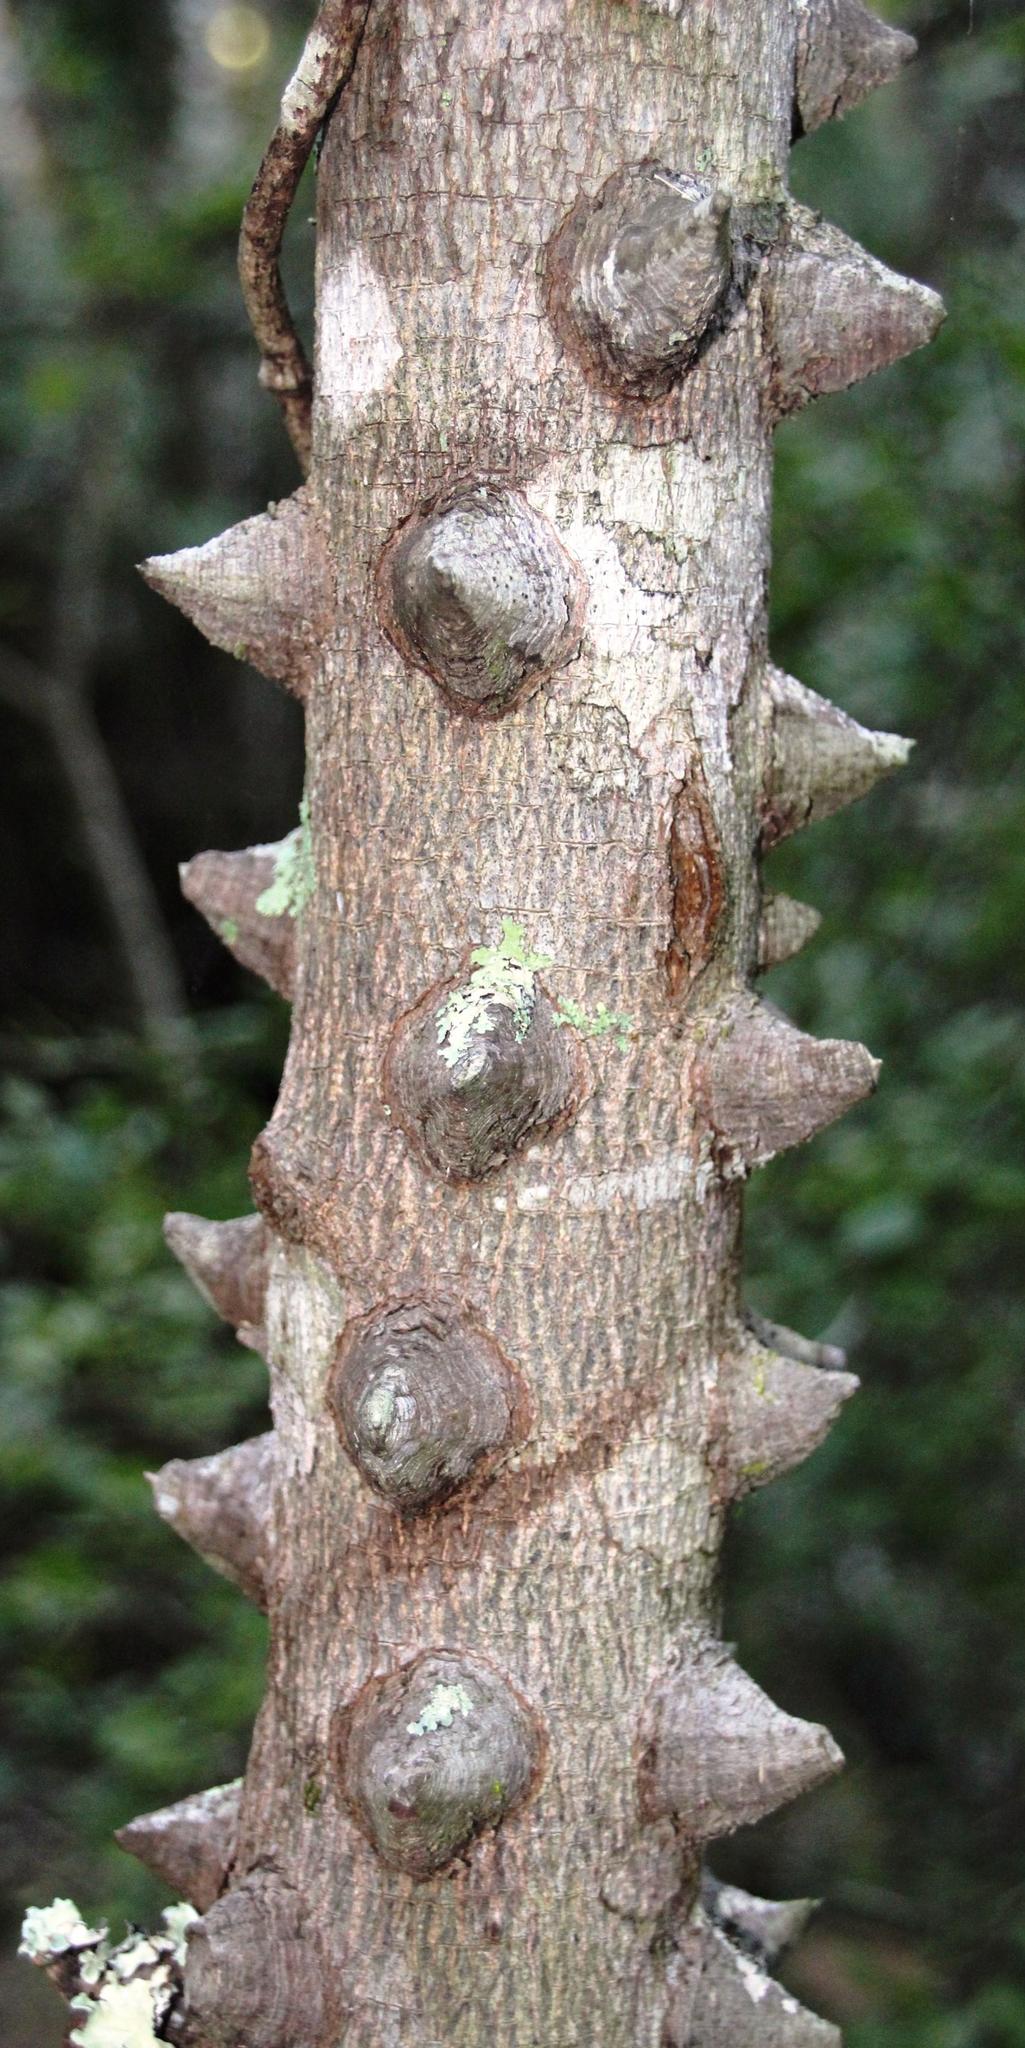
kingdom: Plantae
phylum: Tracheophyta
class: Magnoliopsida
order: Sapindales
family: Rutaceae
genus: Zanthoxylum
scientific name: Zanthoxylum davyi
